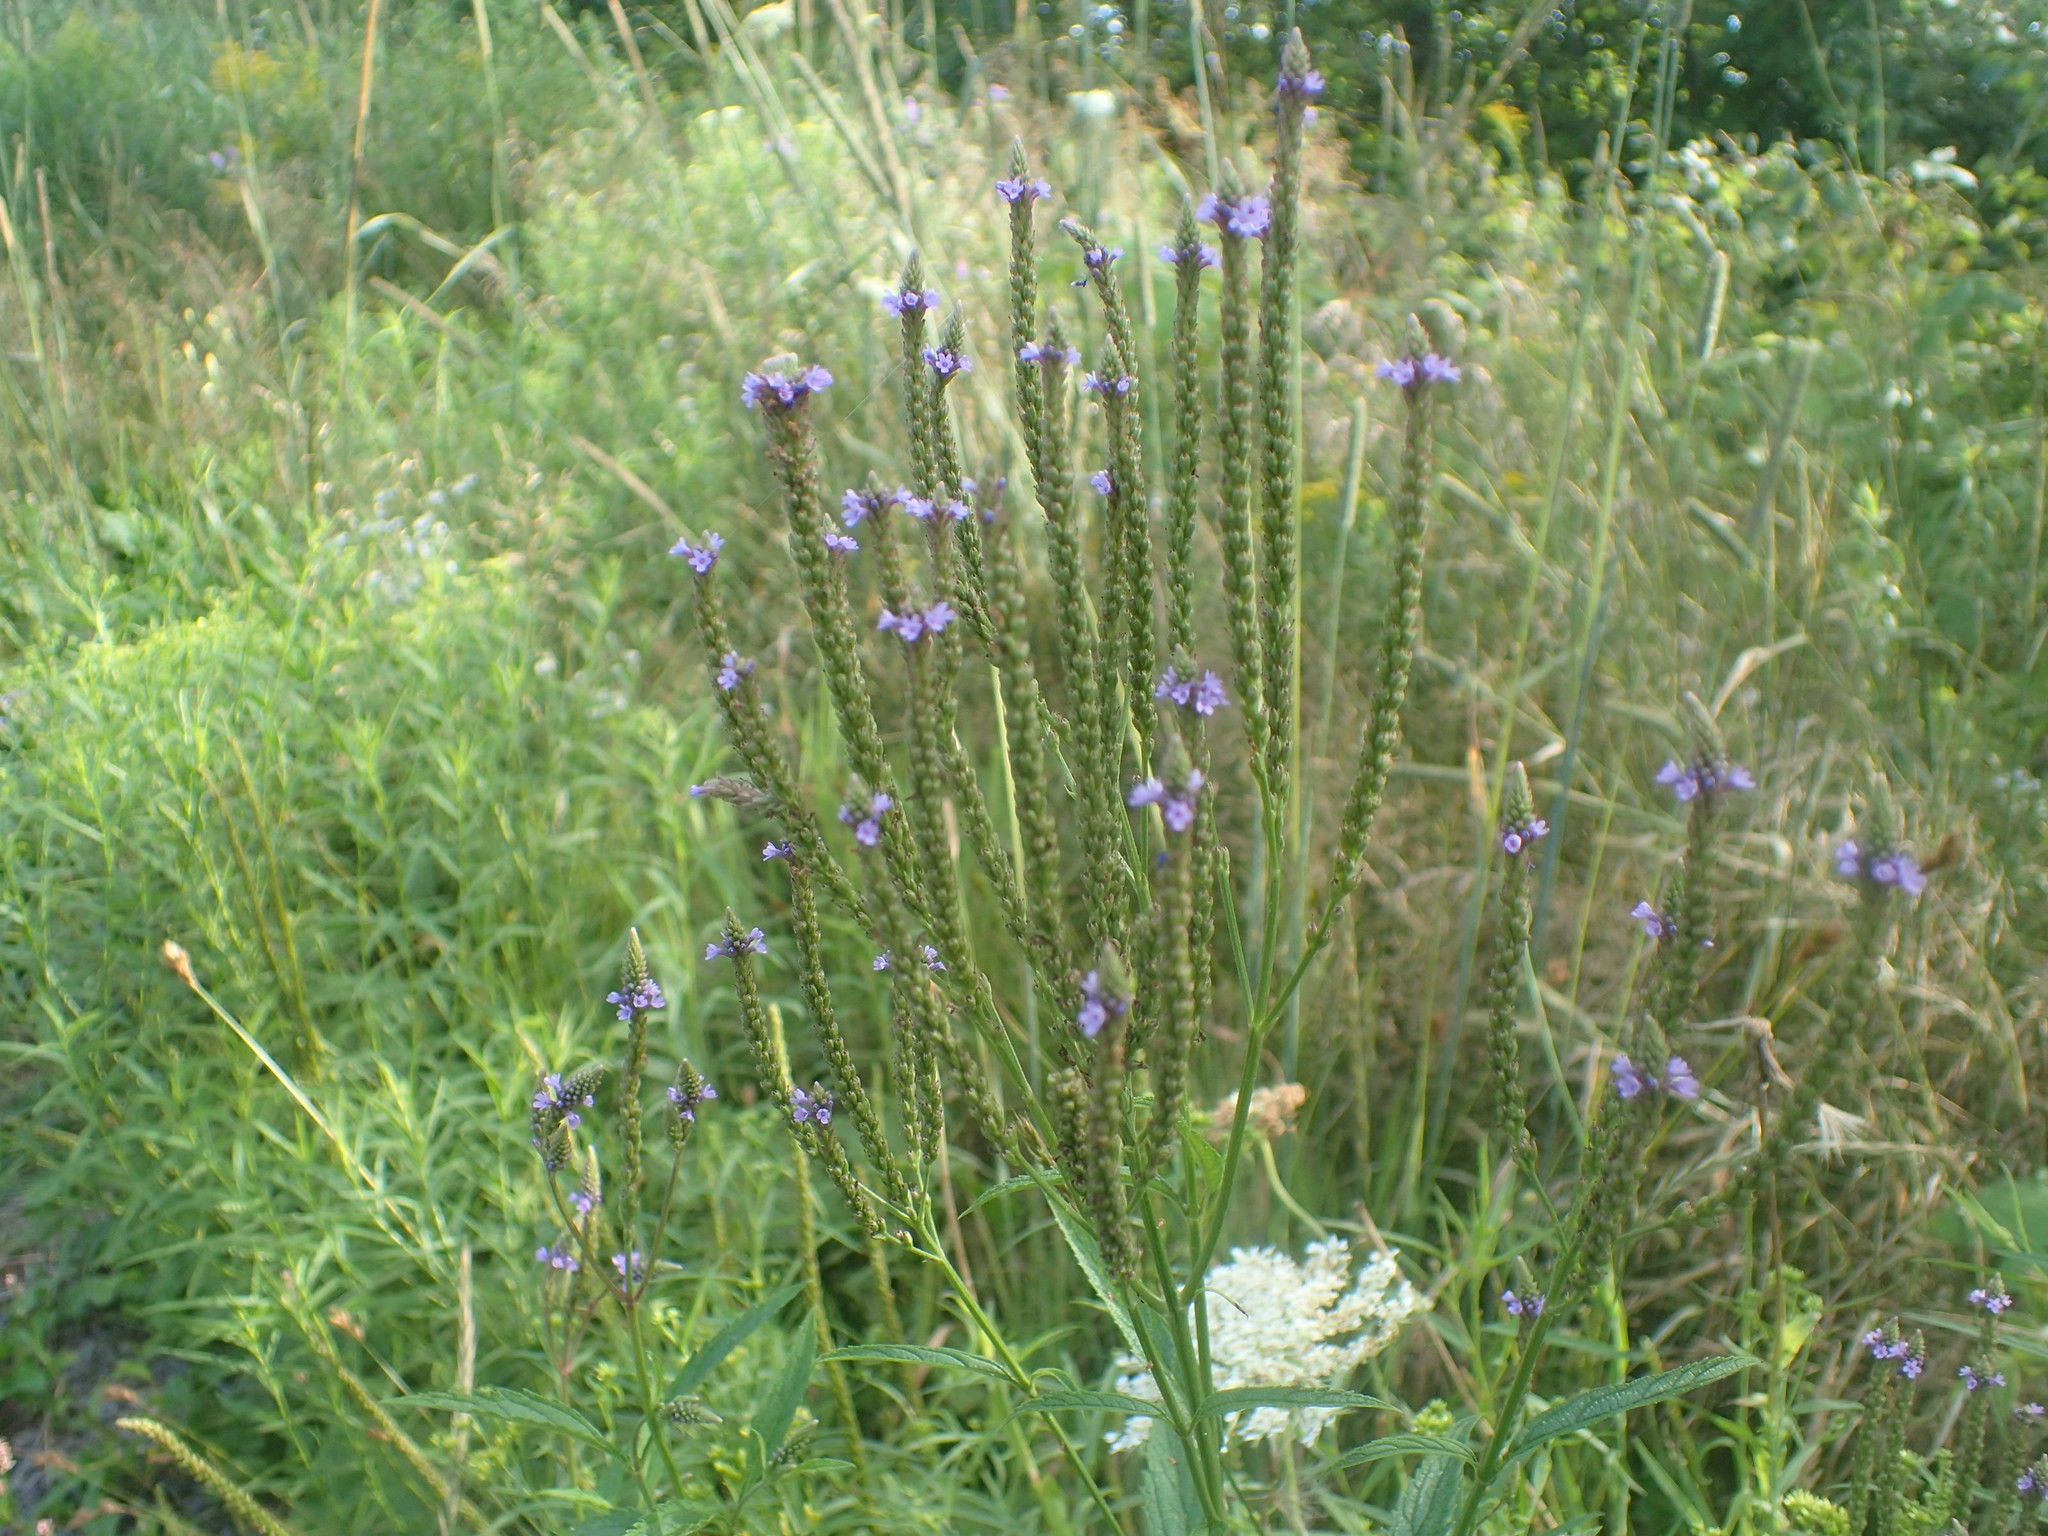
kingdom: Plantae
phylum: Tracheophyta
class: Magnoliopsida
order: Lamiales
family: Verbenaceae
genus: Verbena
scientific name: Verbena hastata
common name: American blue vervain
